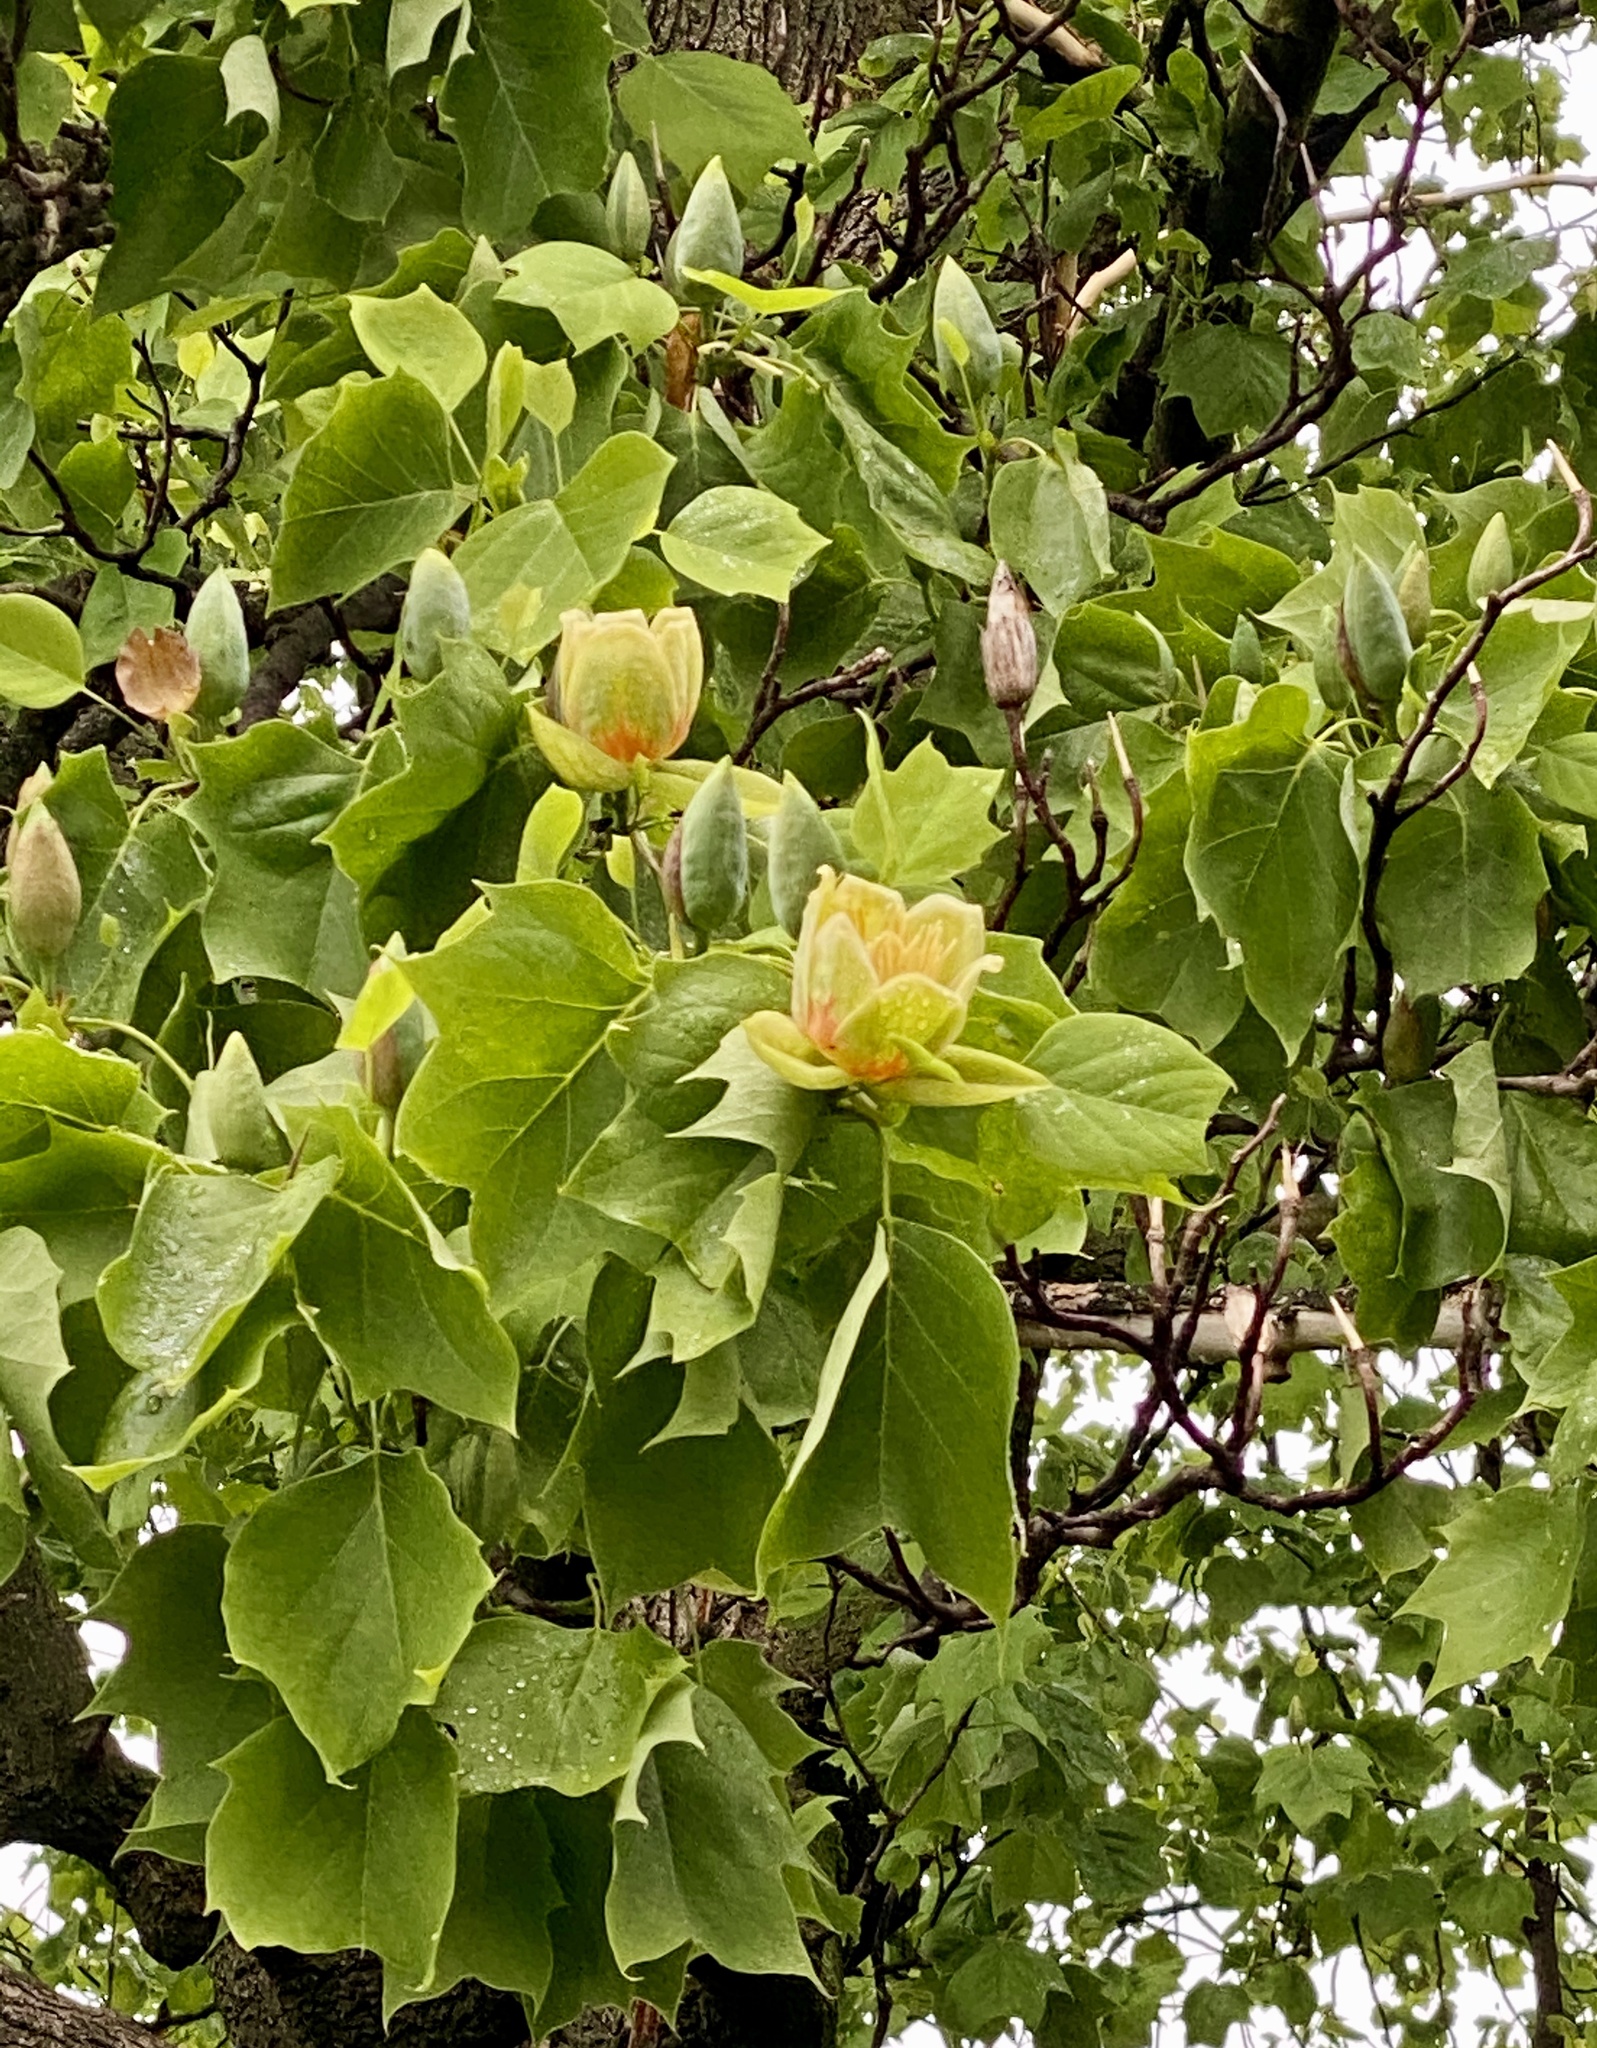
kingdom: Plantae
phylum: Tracheophyta
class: Magnoliopsida
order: Magnoliales
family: Magnoliaceae
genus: Liriodendron
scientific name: Liriodendron tulipifera
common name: Tulip tree
